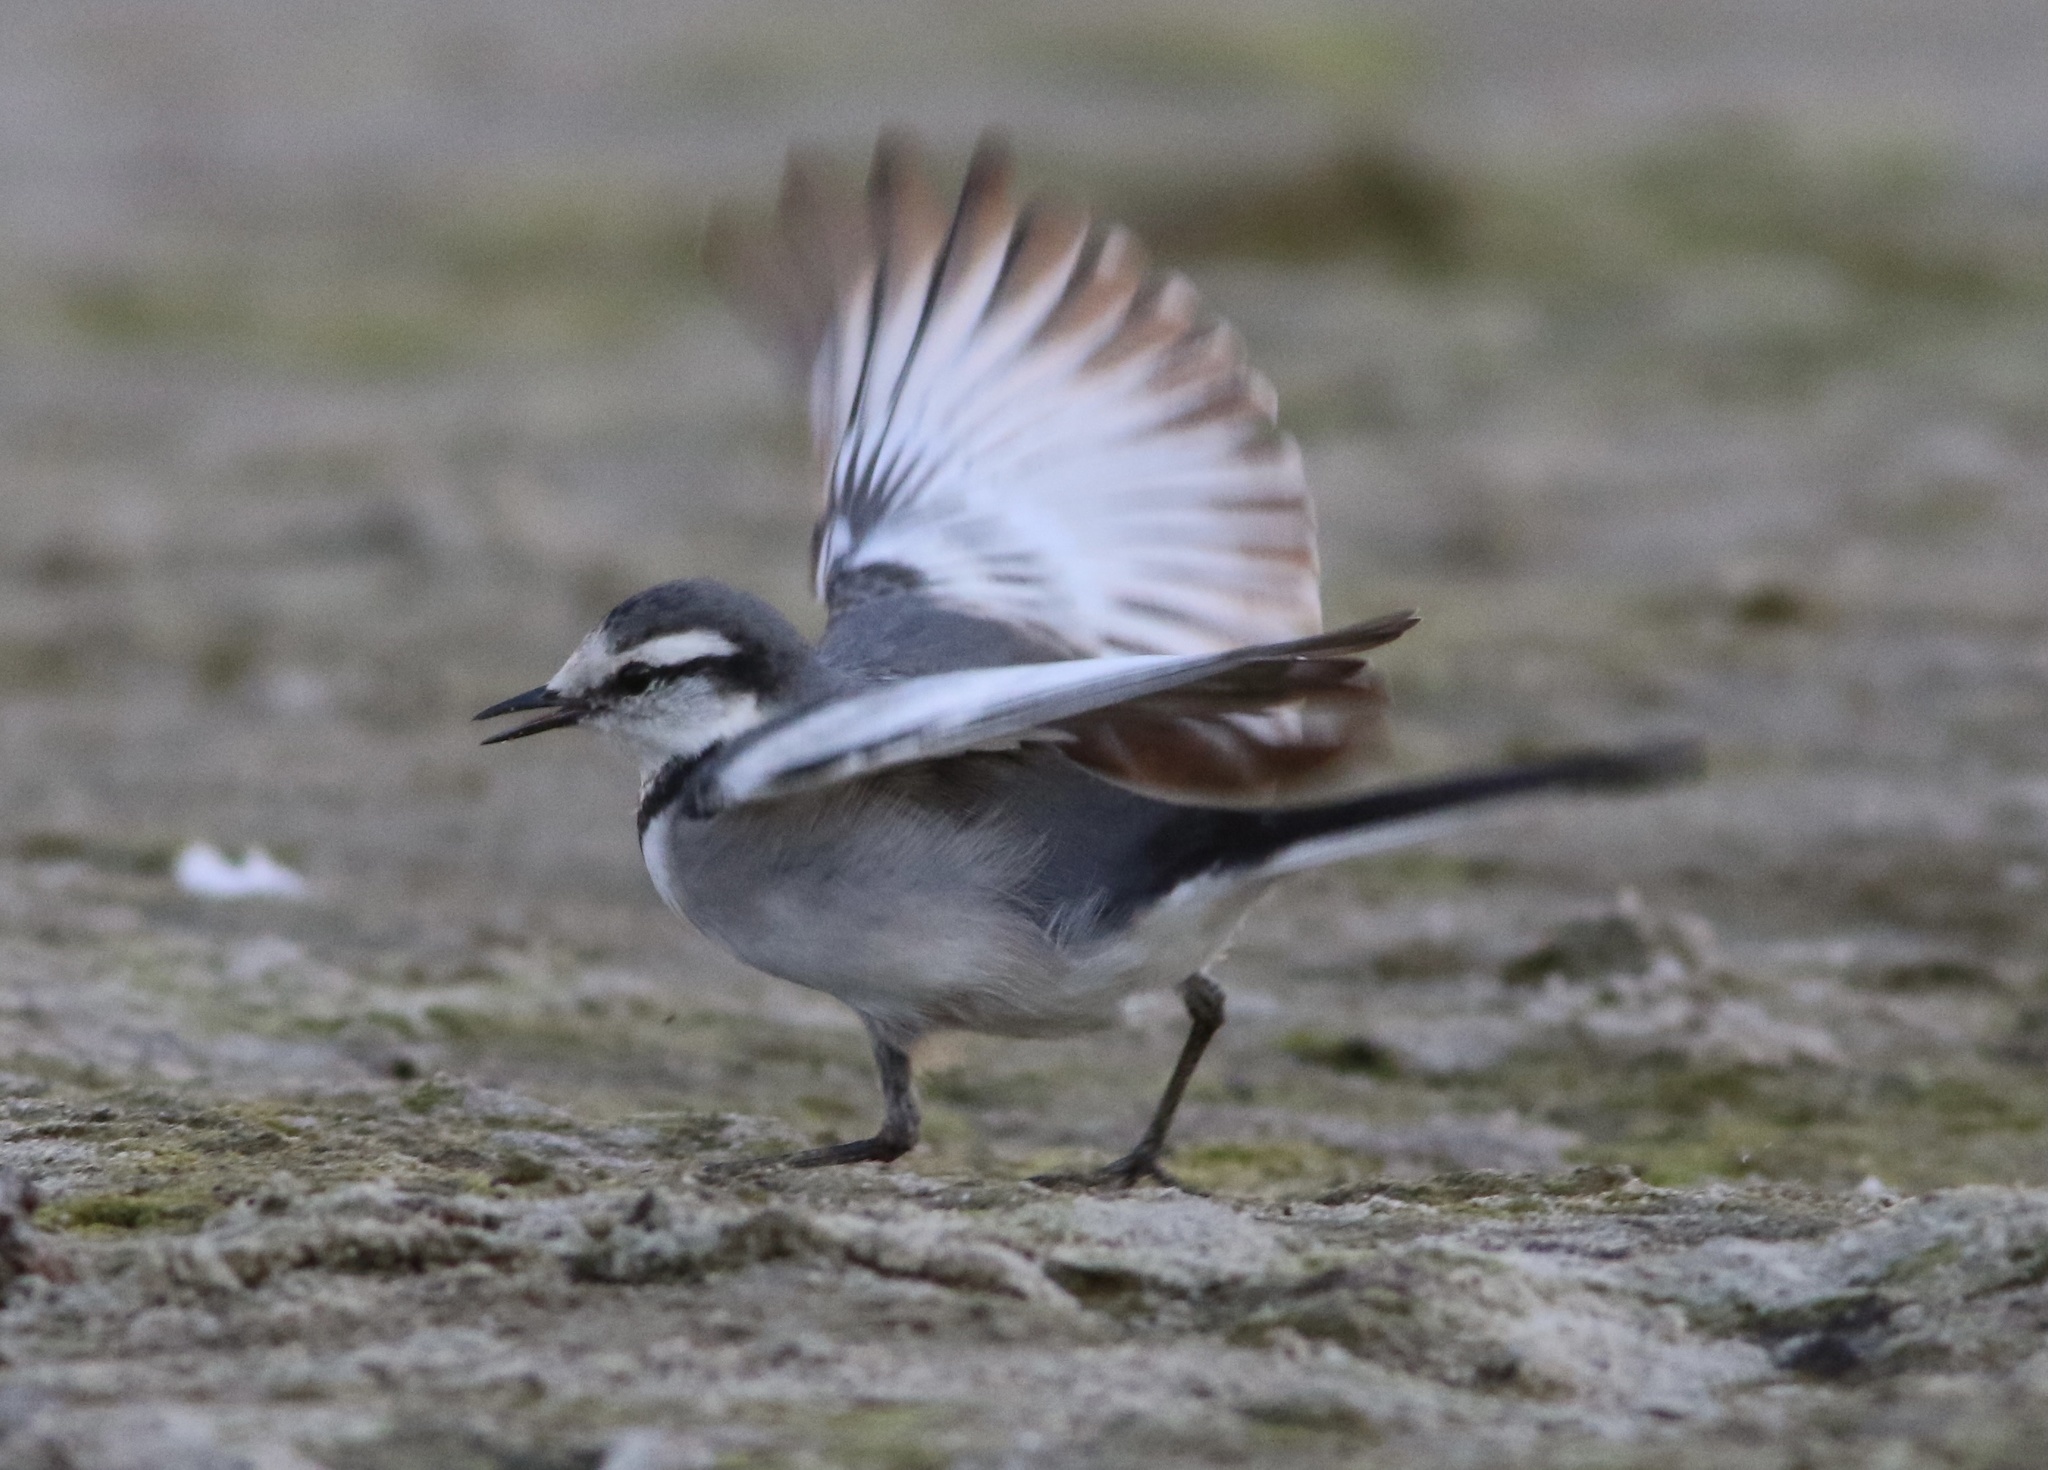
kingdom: Animalia
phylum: Chordata
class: Aves
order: Passeriformes
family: Motacillidae
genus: Motacilla
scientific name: Motacilla alba
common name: White wagtail
